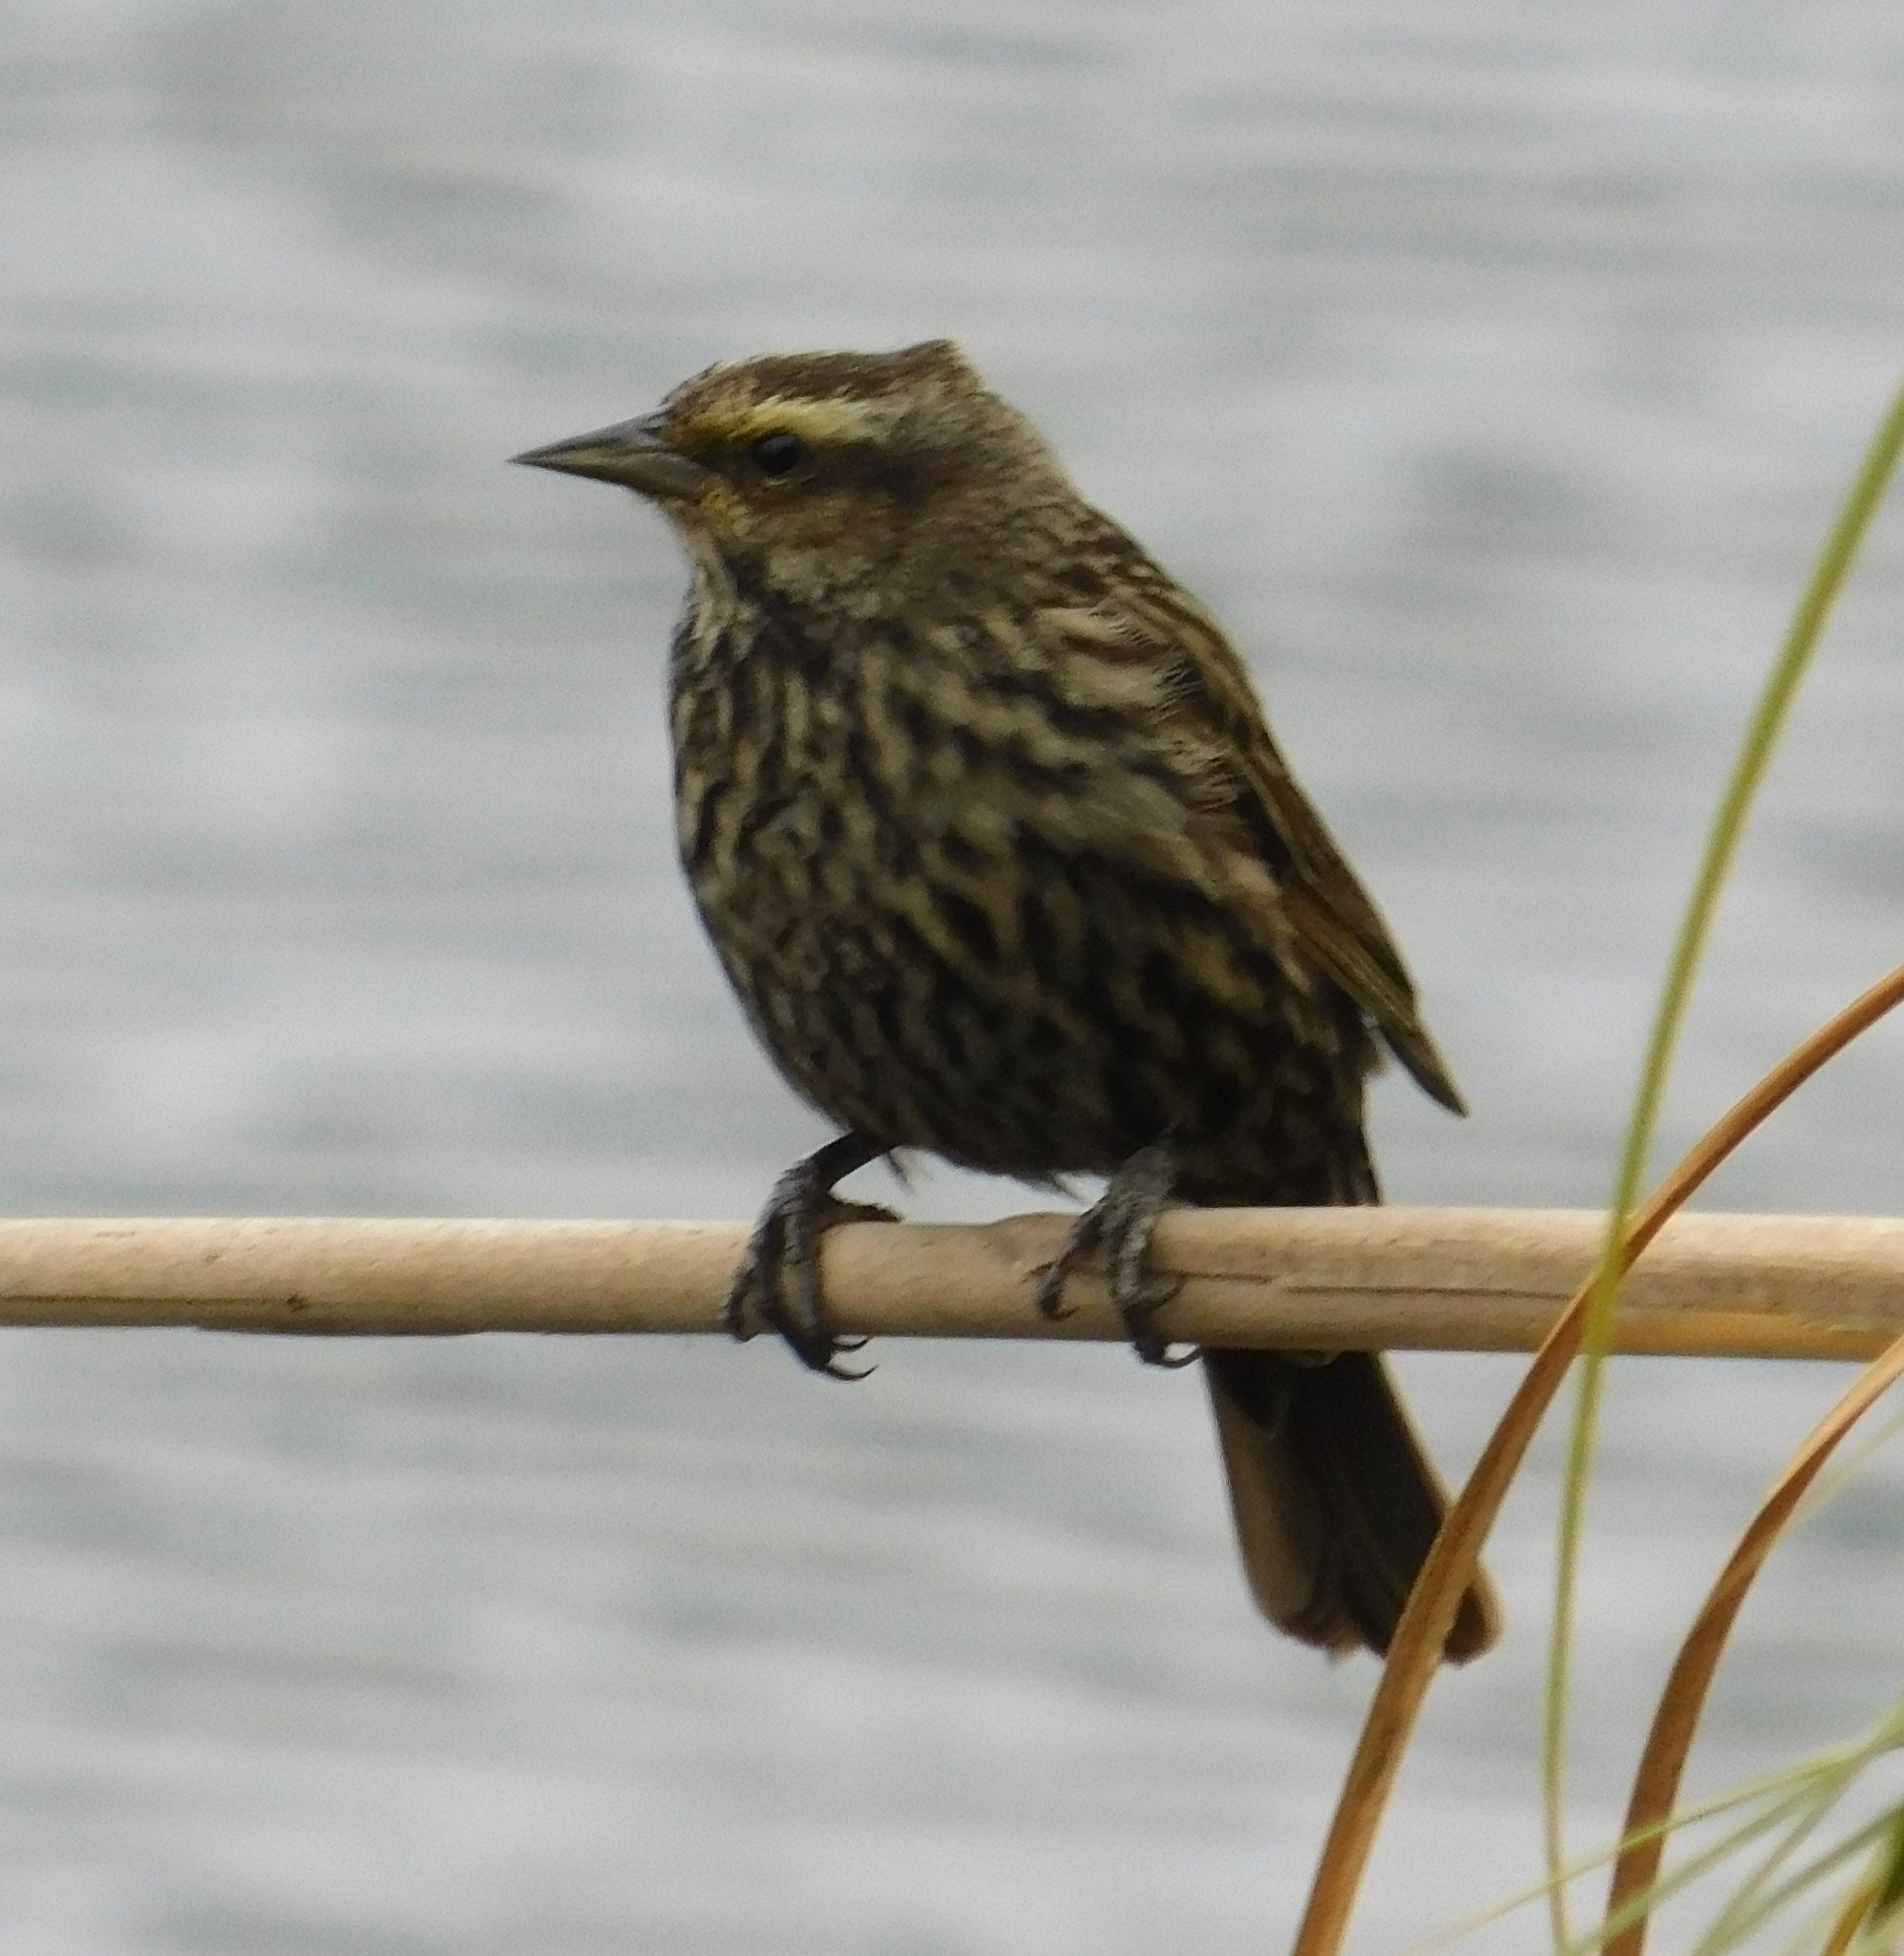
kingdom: Animalia
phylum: Chordata
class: Aves
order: Passeriformes
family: Icteridae
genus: Agelasticus
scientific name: Agelasticus thilius
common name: Yellow-winged blackbird
